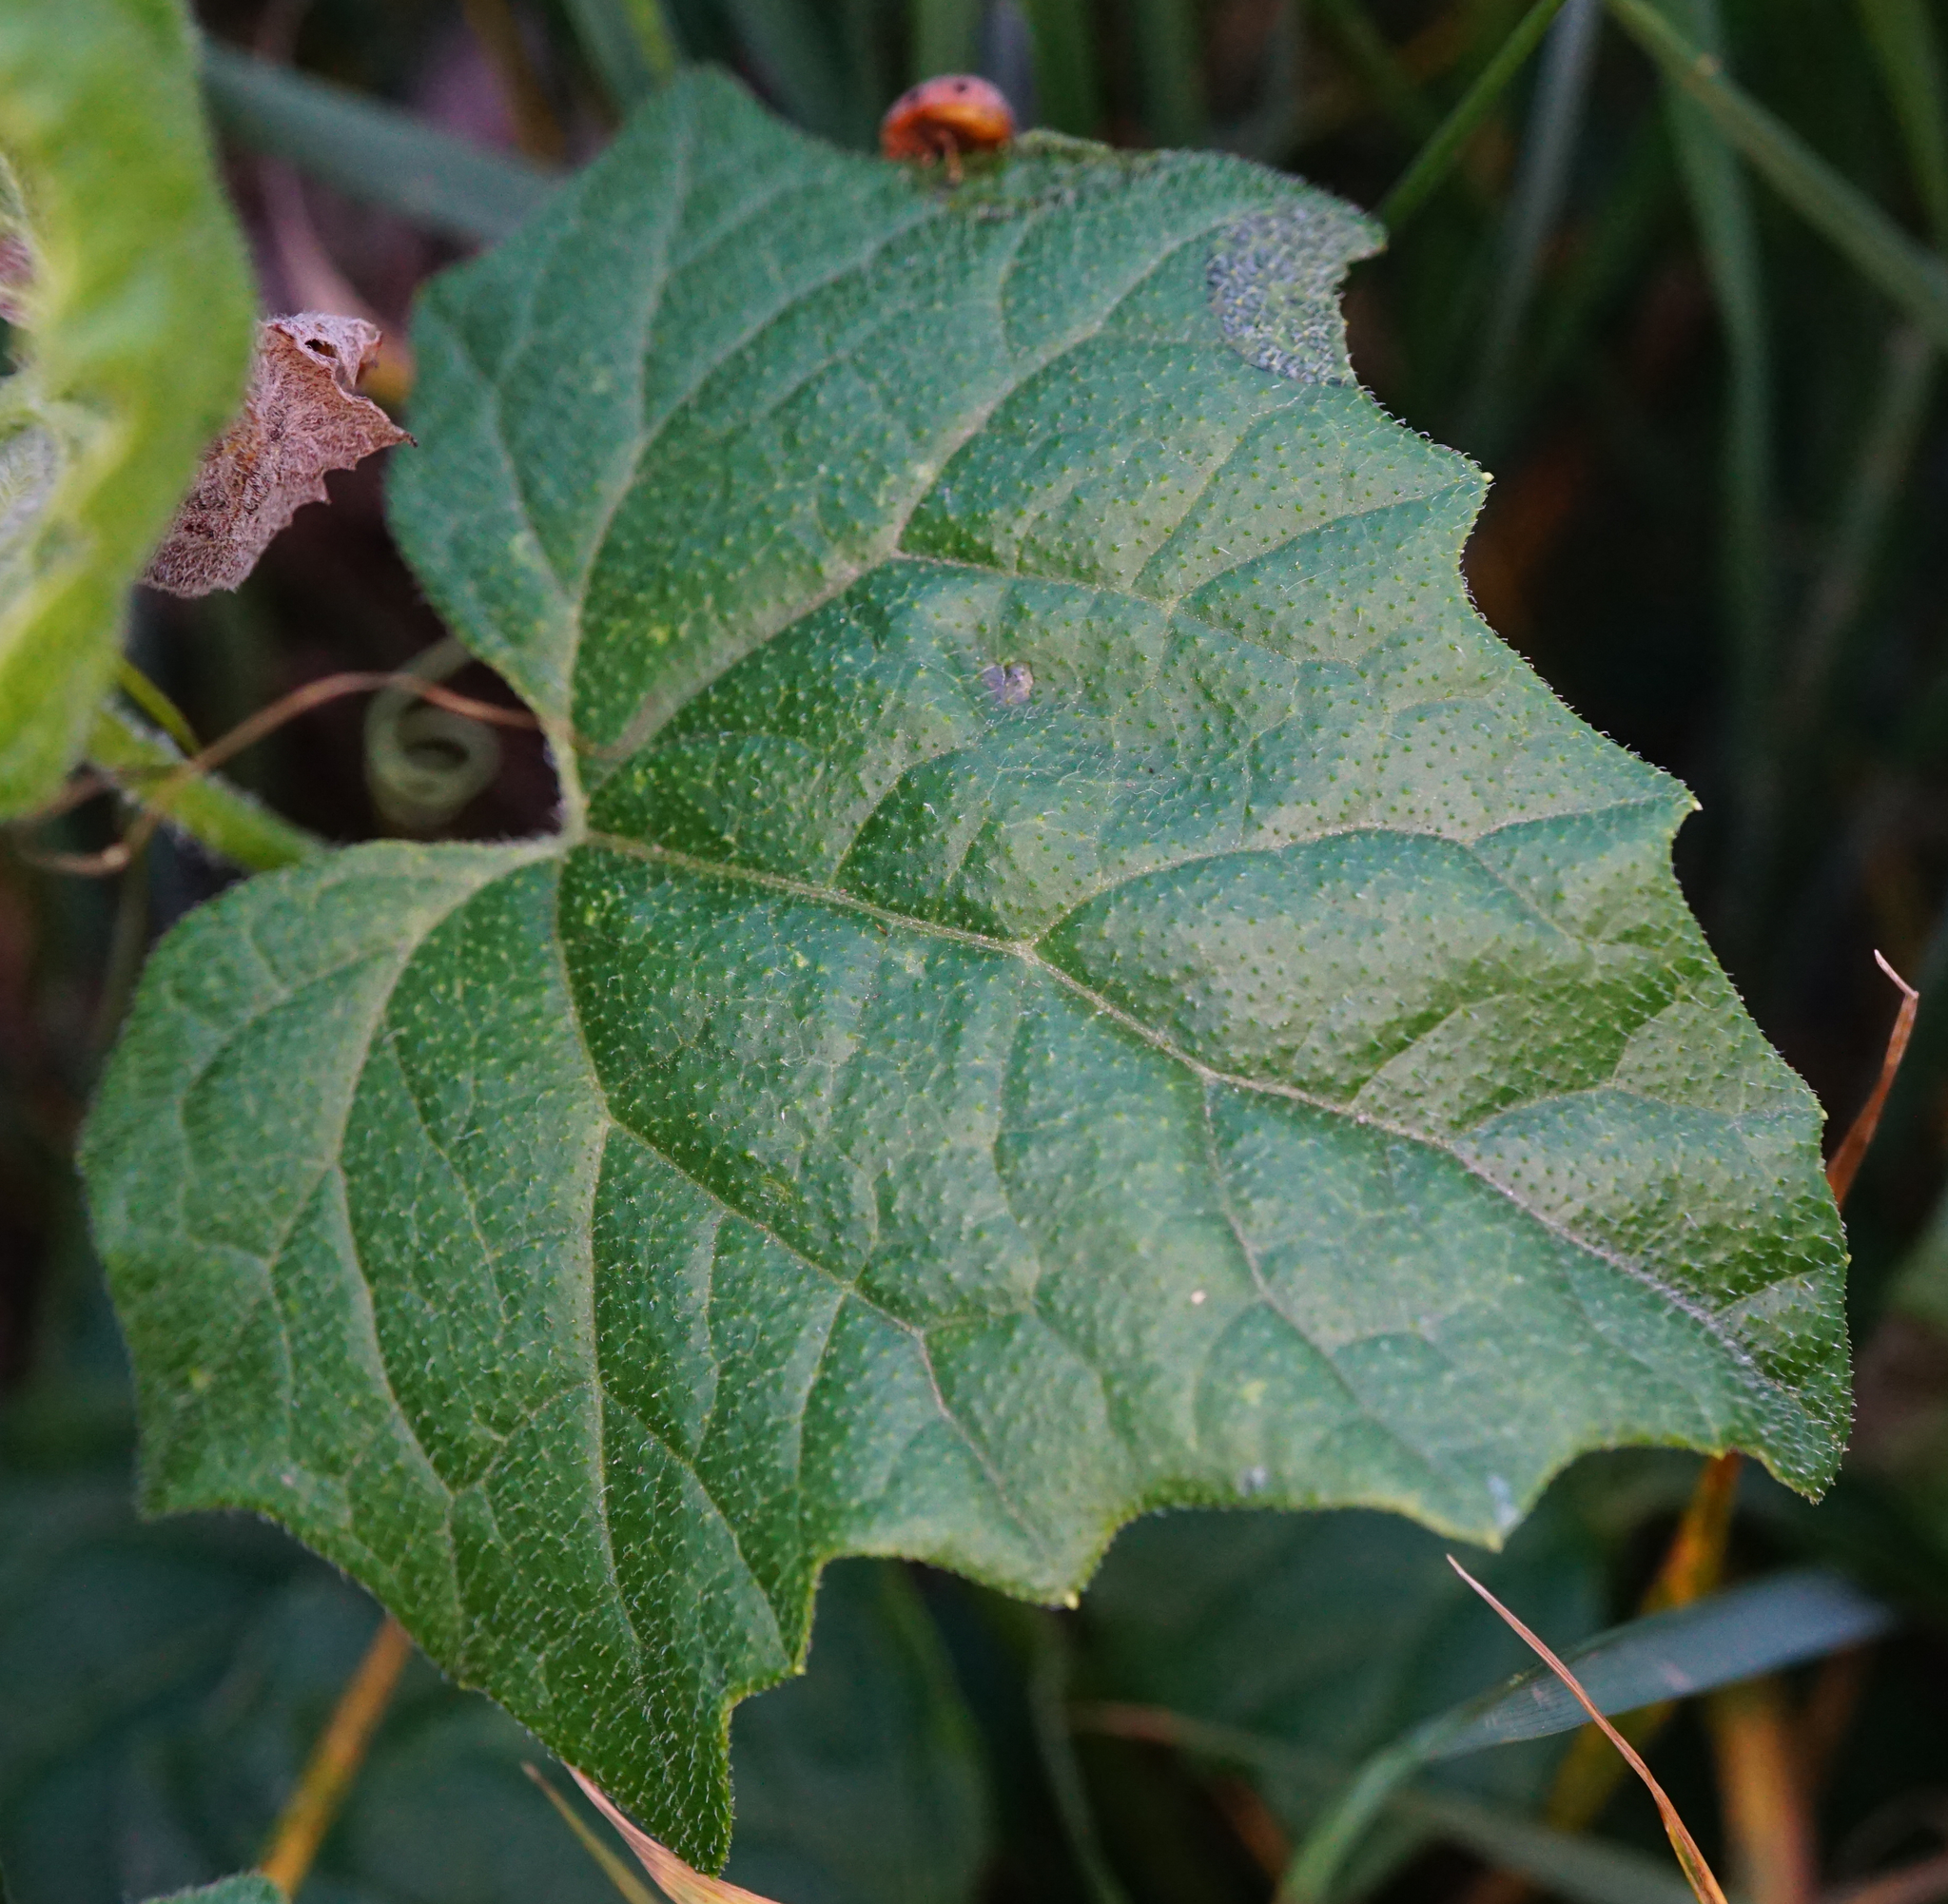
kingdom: Plantae
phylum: Tracheophyta
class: Magnoliopsida
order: Cucurbitales
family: Cucurbitaceae
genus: Bryonia
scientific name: Bryonia dioica
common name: White bryony
